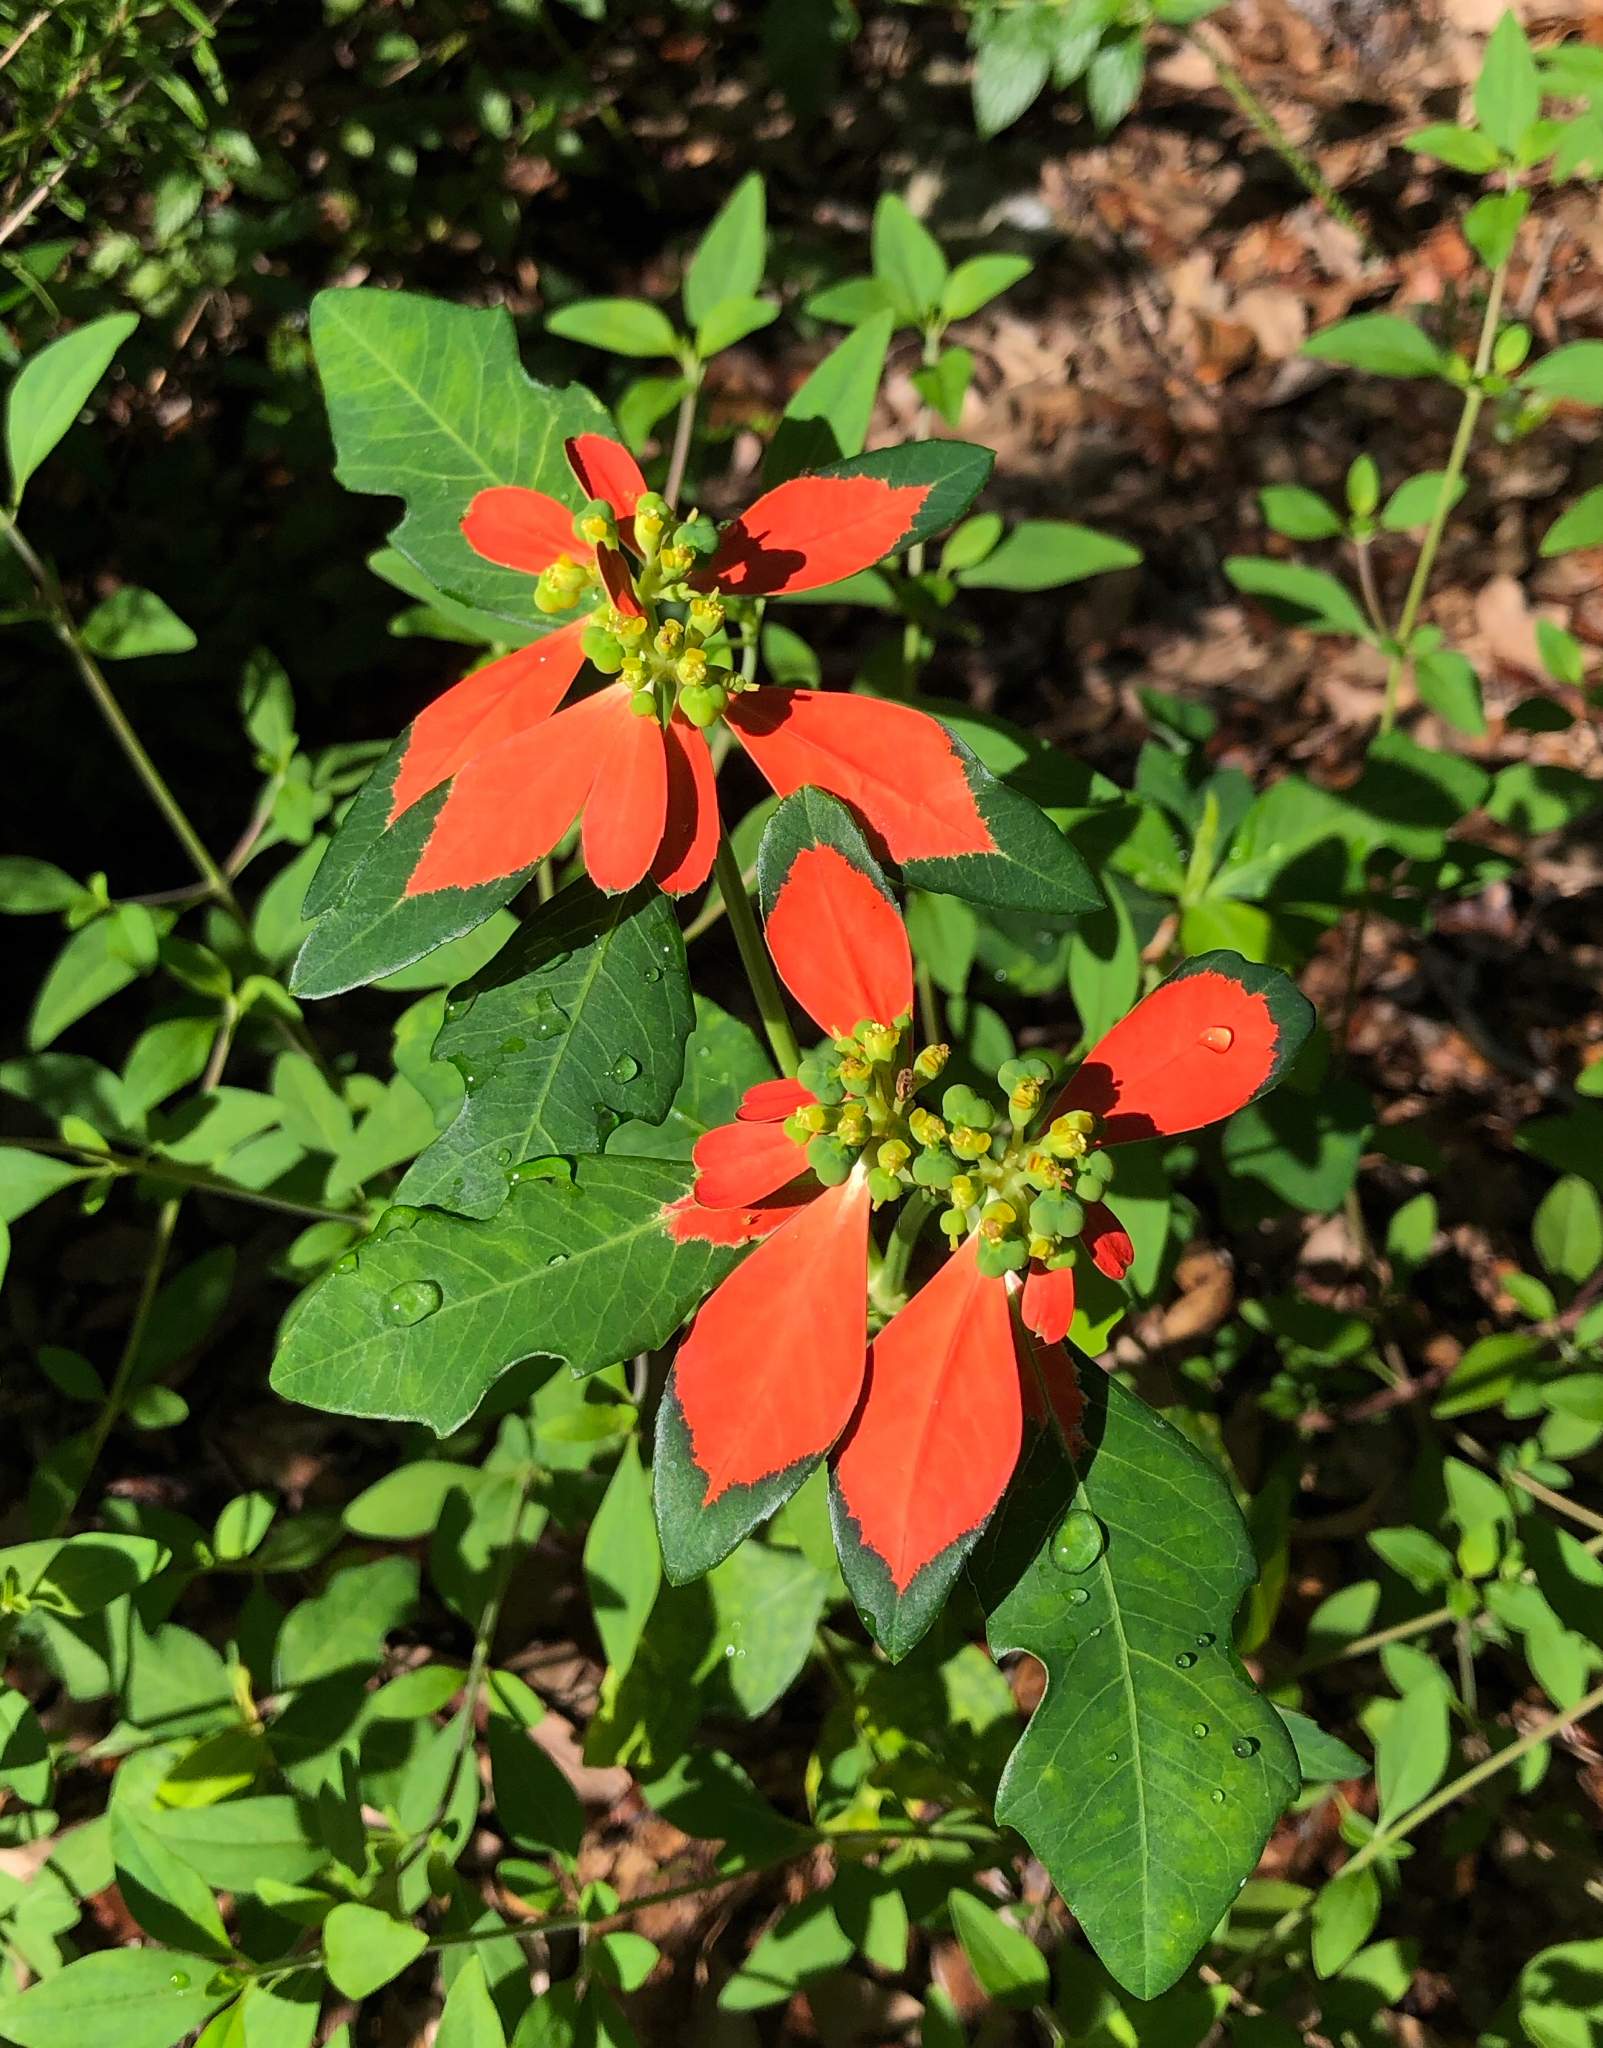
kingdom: Plantae
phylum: Tracheophyta
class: Magnoliopsida
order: Malpighiales
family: Euphorbiaceae
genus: Euphorbia
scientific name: Euphorbia heterophylla
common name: Mexican fireplant
